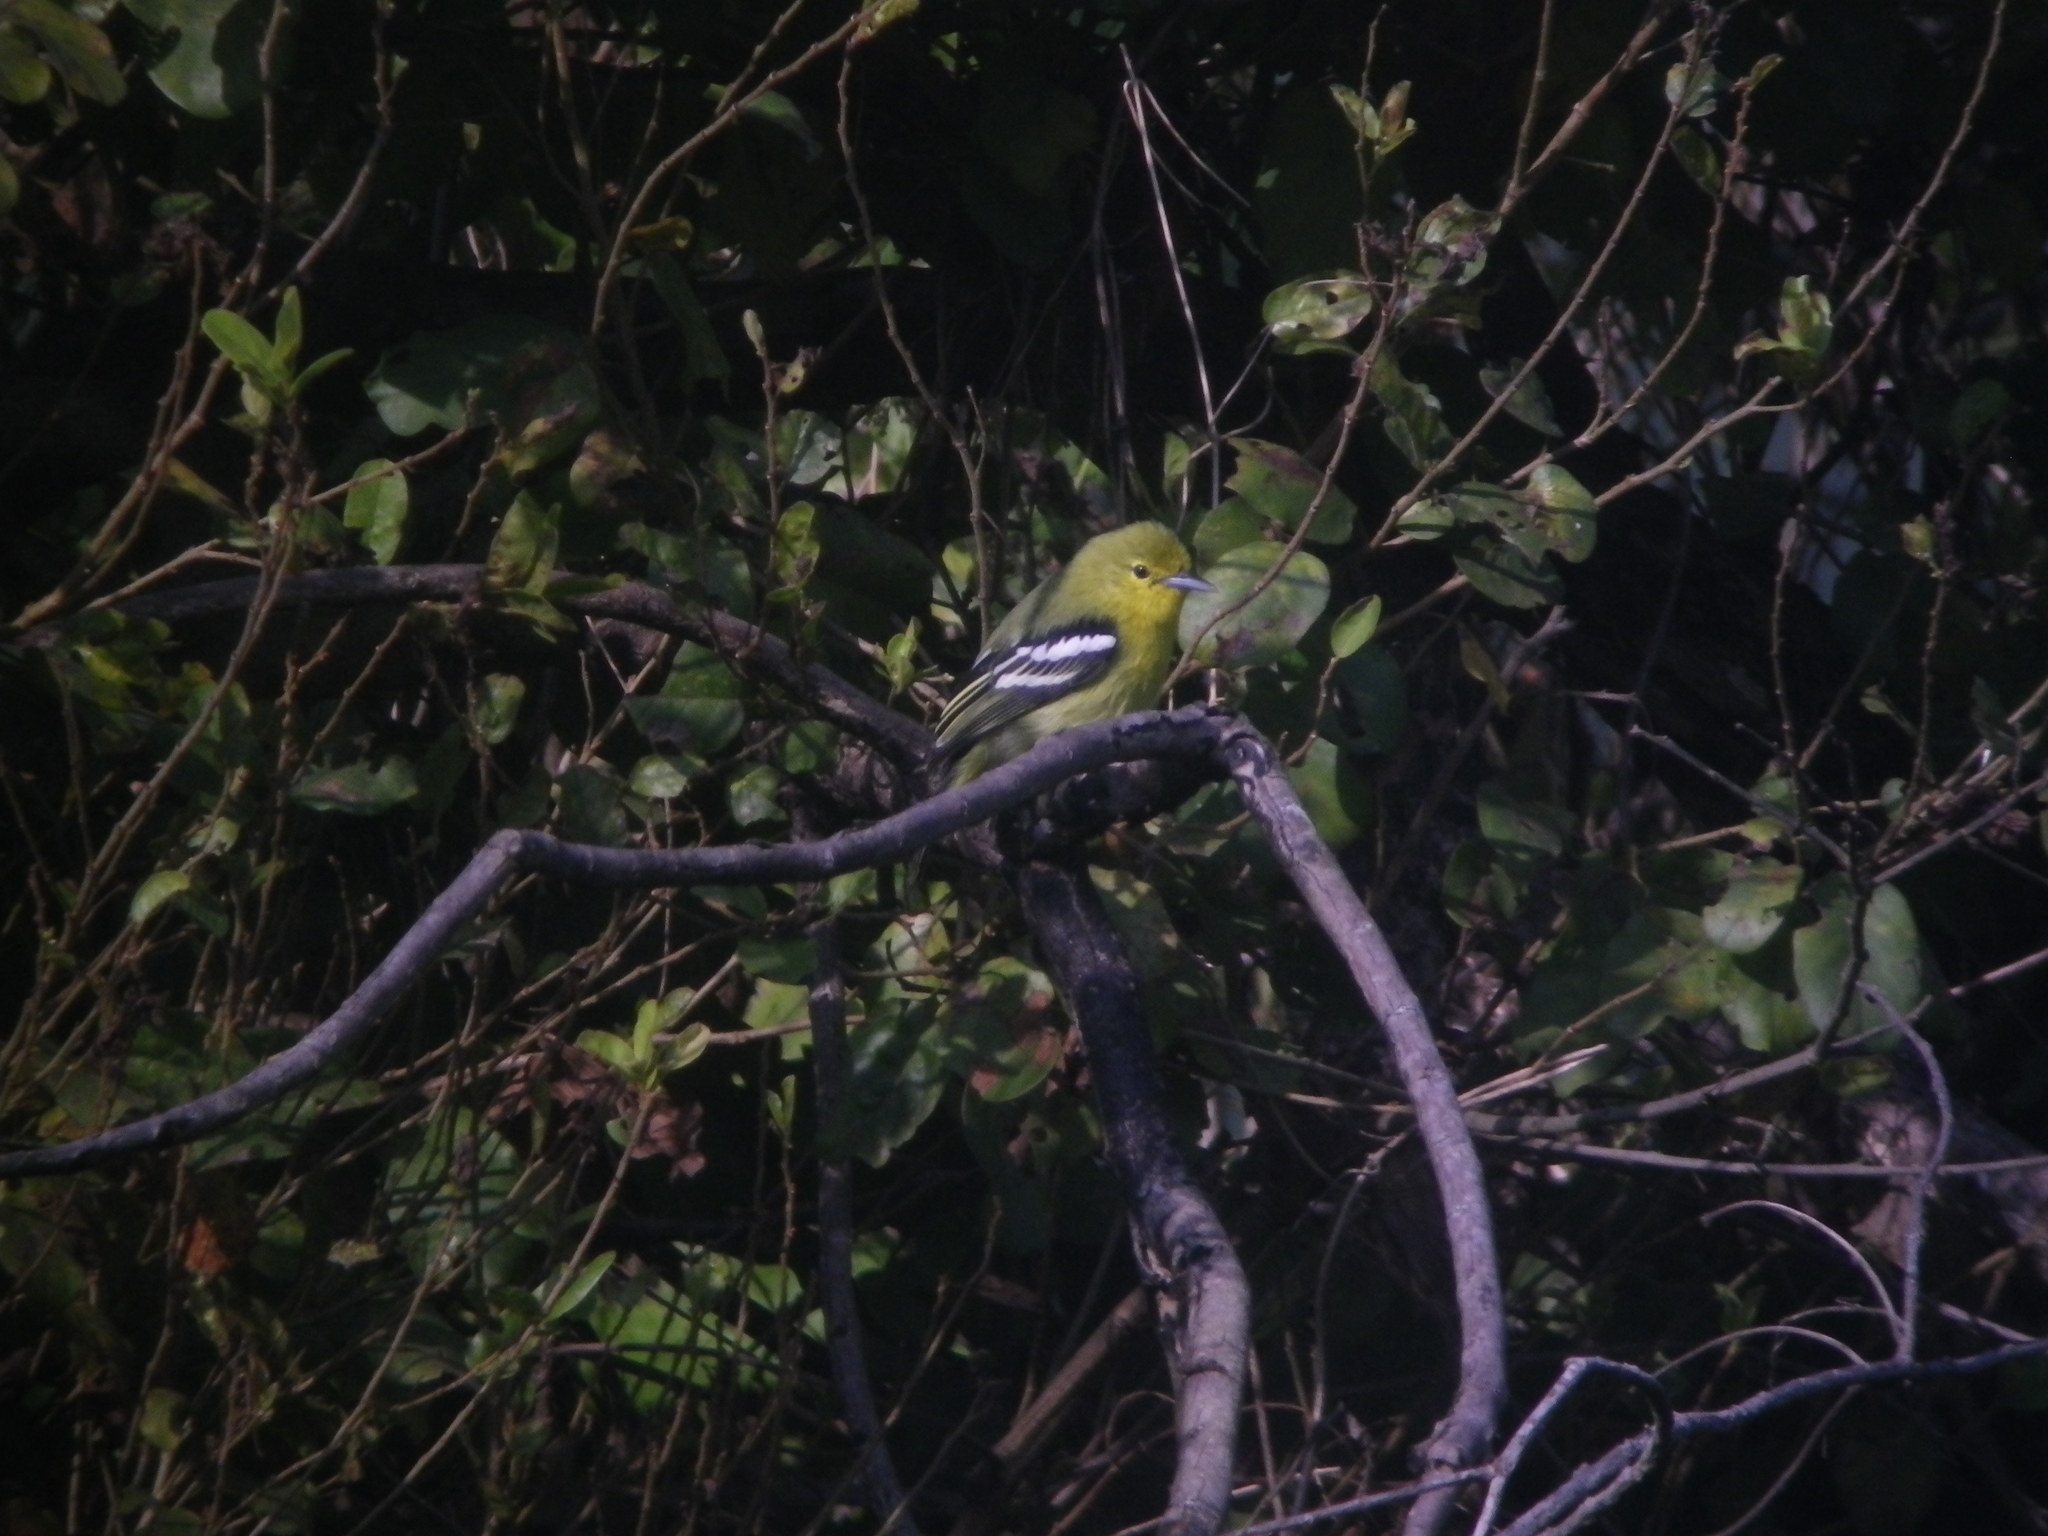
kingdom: Animalia
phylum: Chordata
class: Aves
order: Passeriformes
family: Aegithinidae
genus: Aegithina
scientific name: Aegithina tiphia
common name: Common iora
